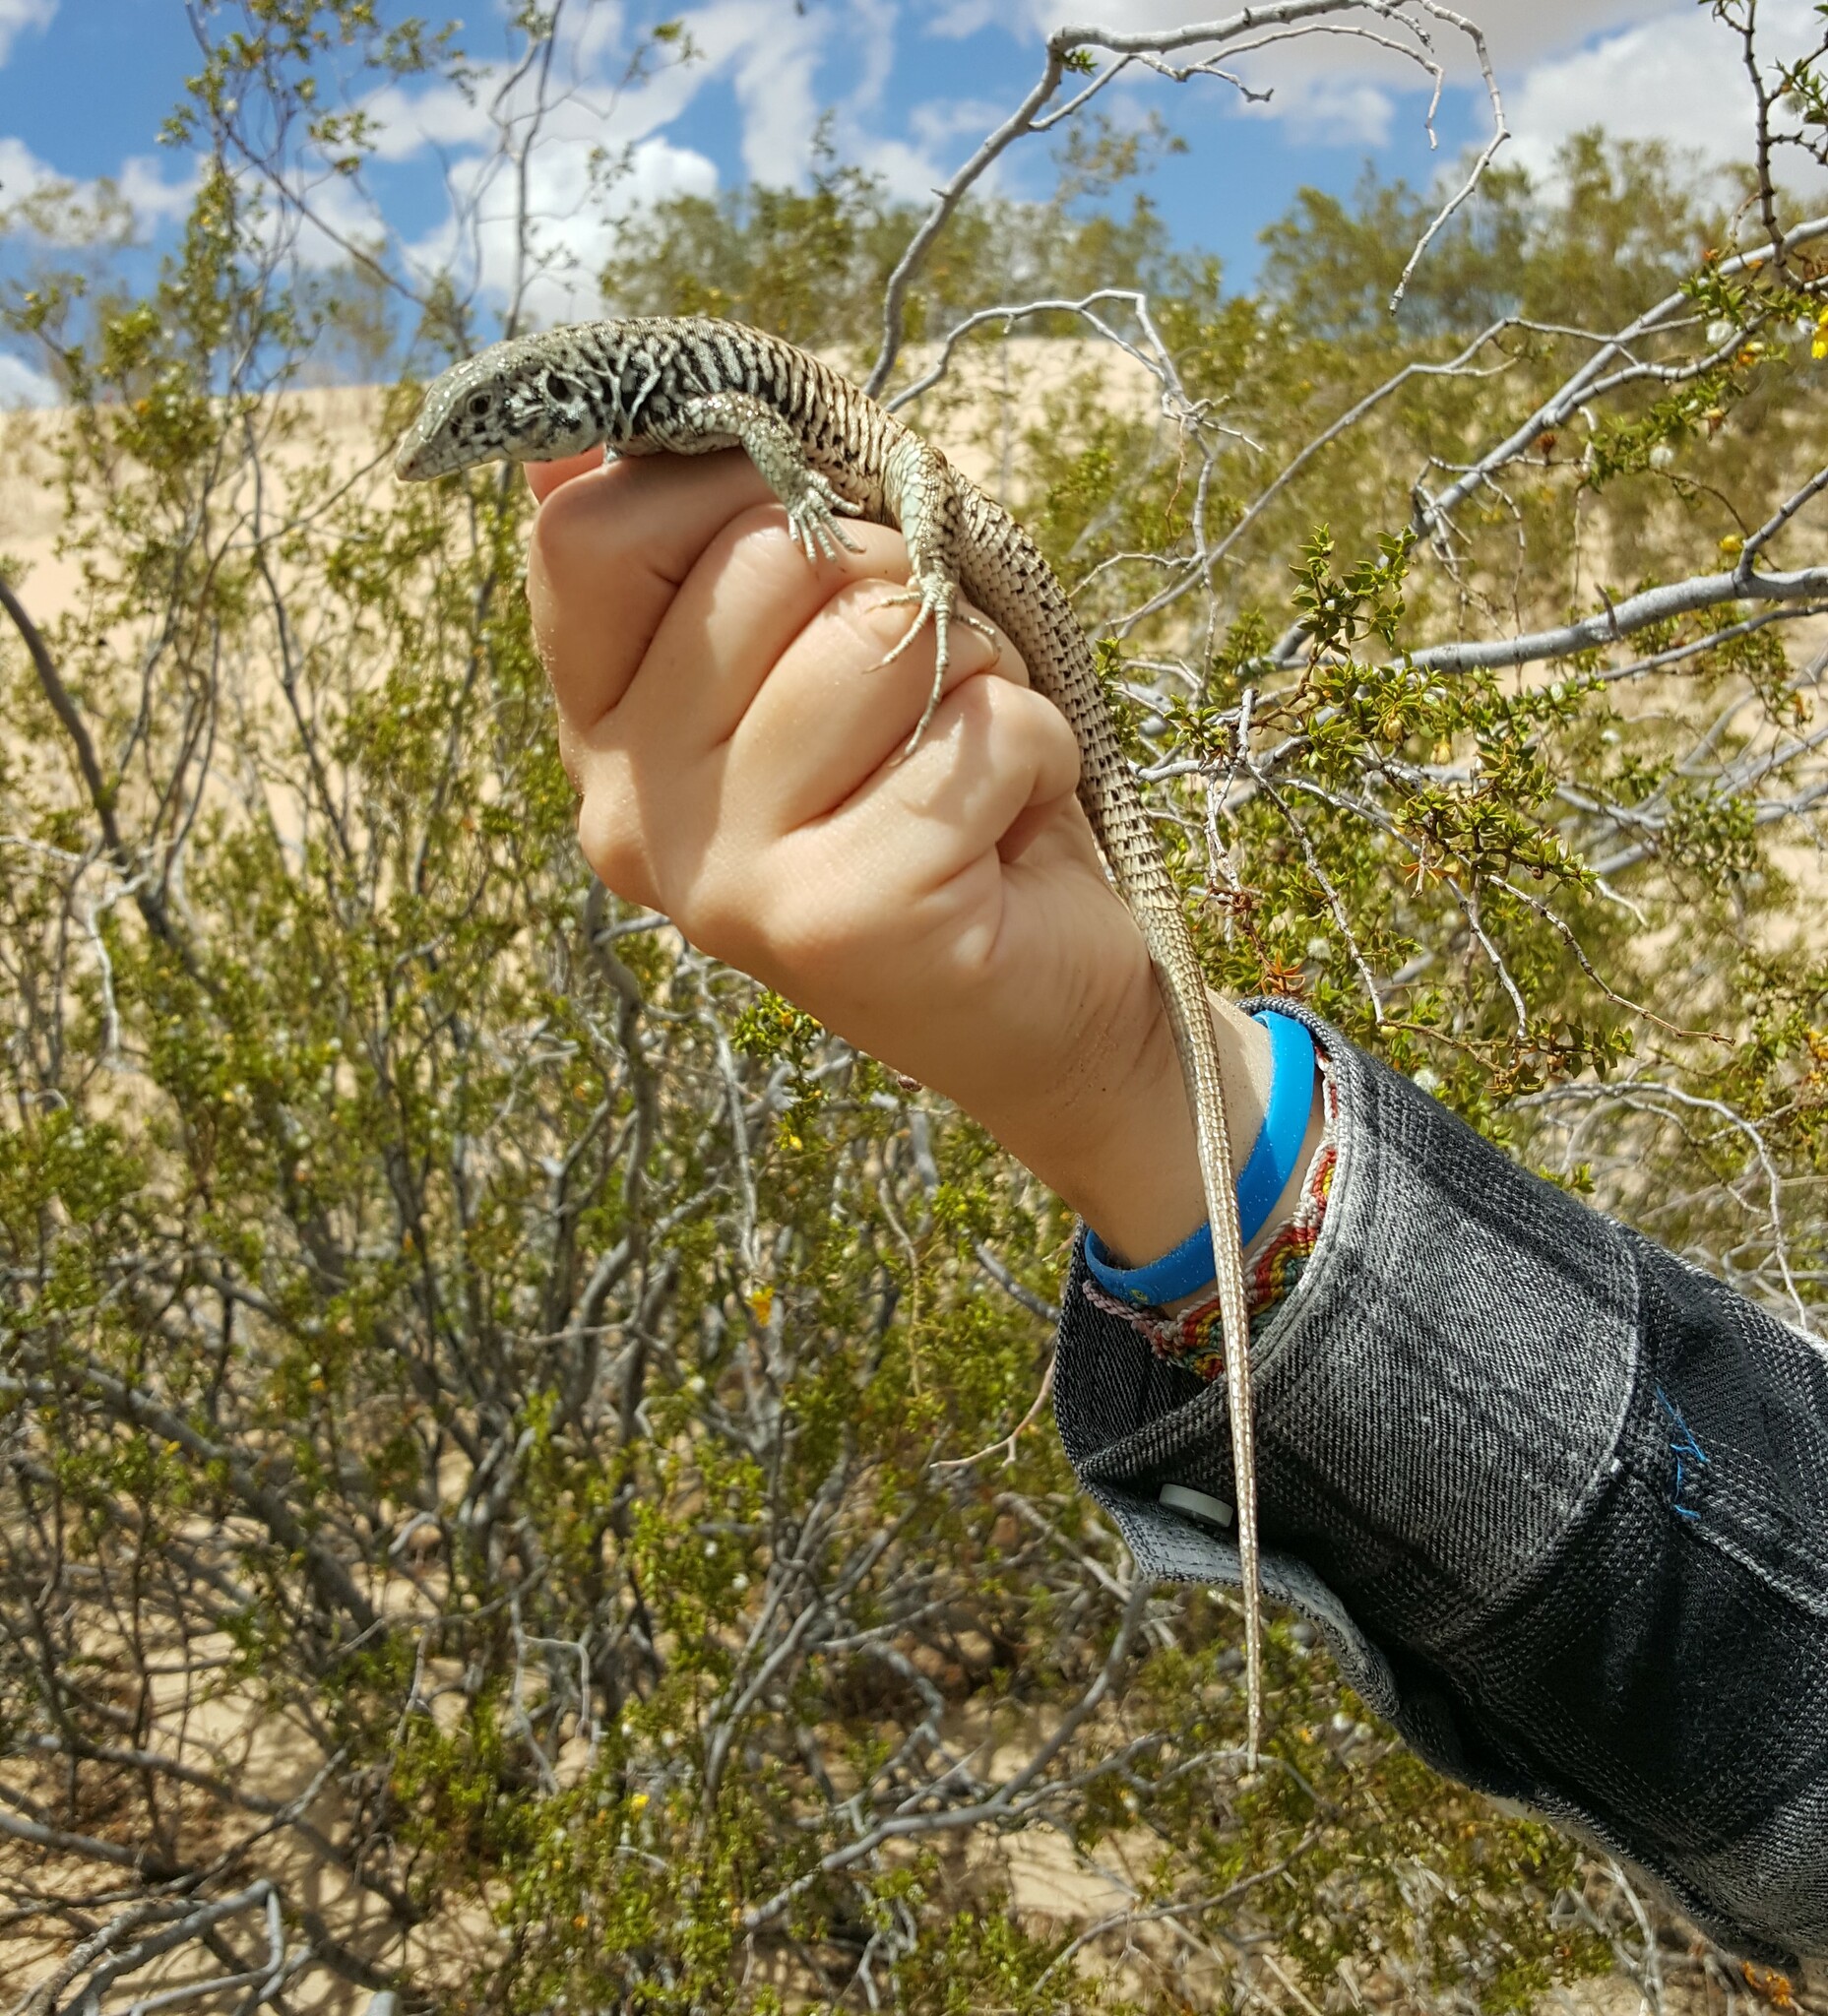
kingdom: Animalia
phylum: Chordata
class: Squamata
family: Teiidae
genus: Aspidoscelis
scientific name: Aspidoscelis tigris
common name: Tiger whiptail
